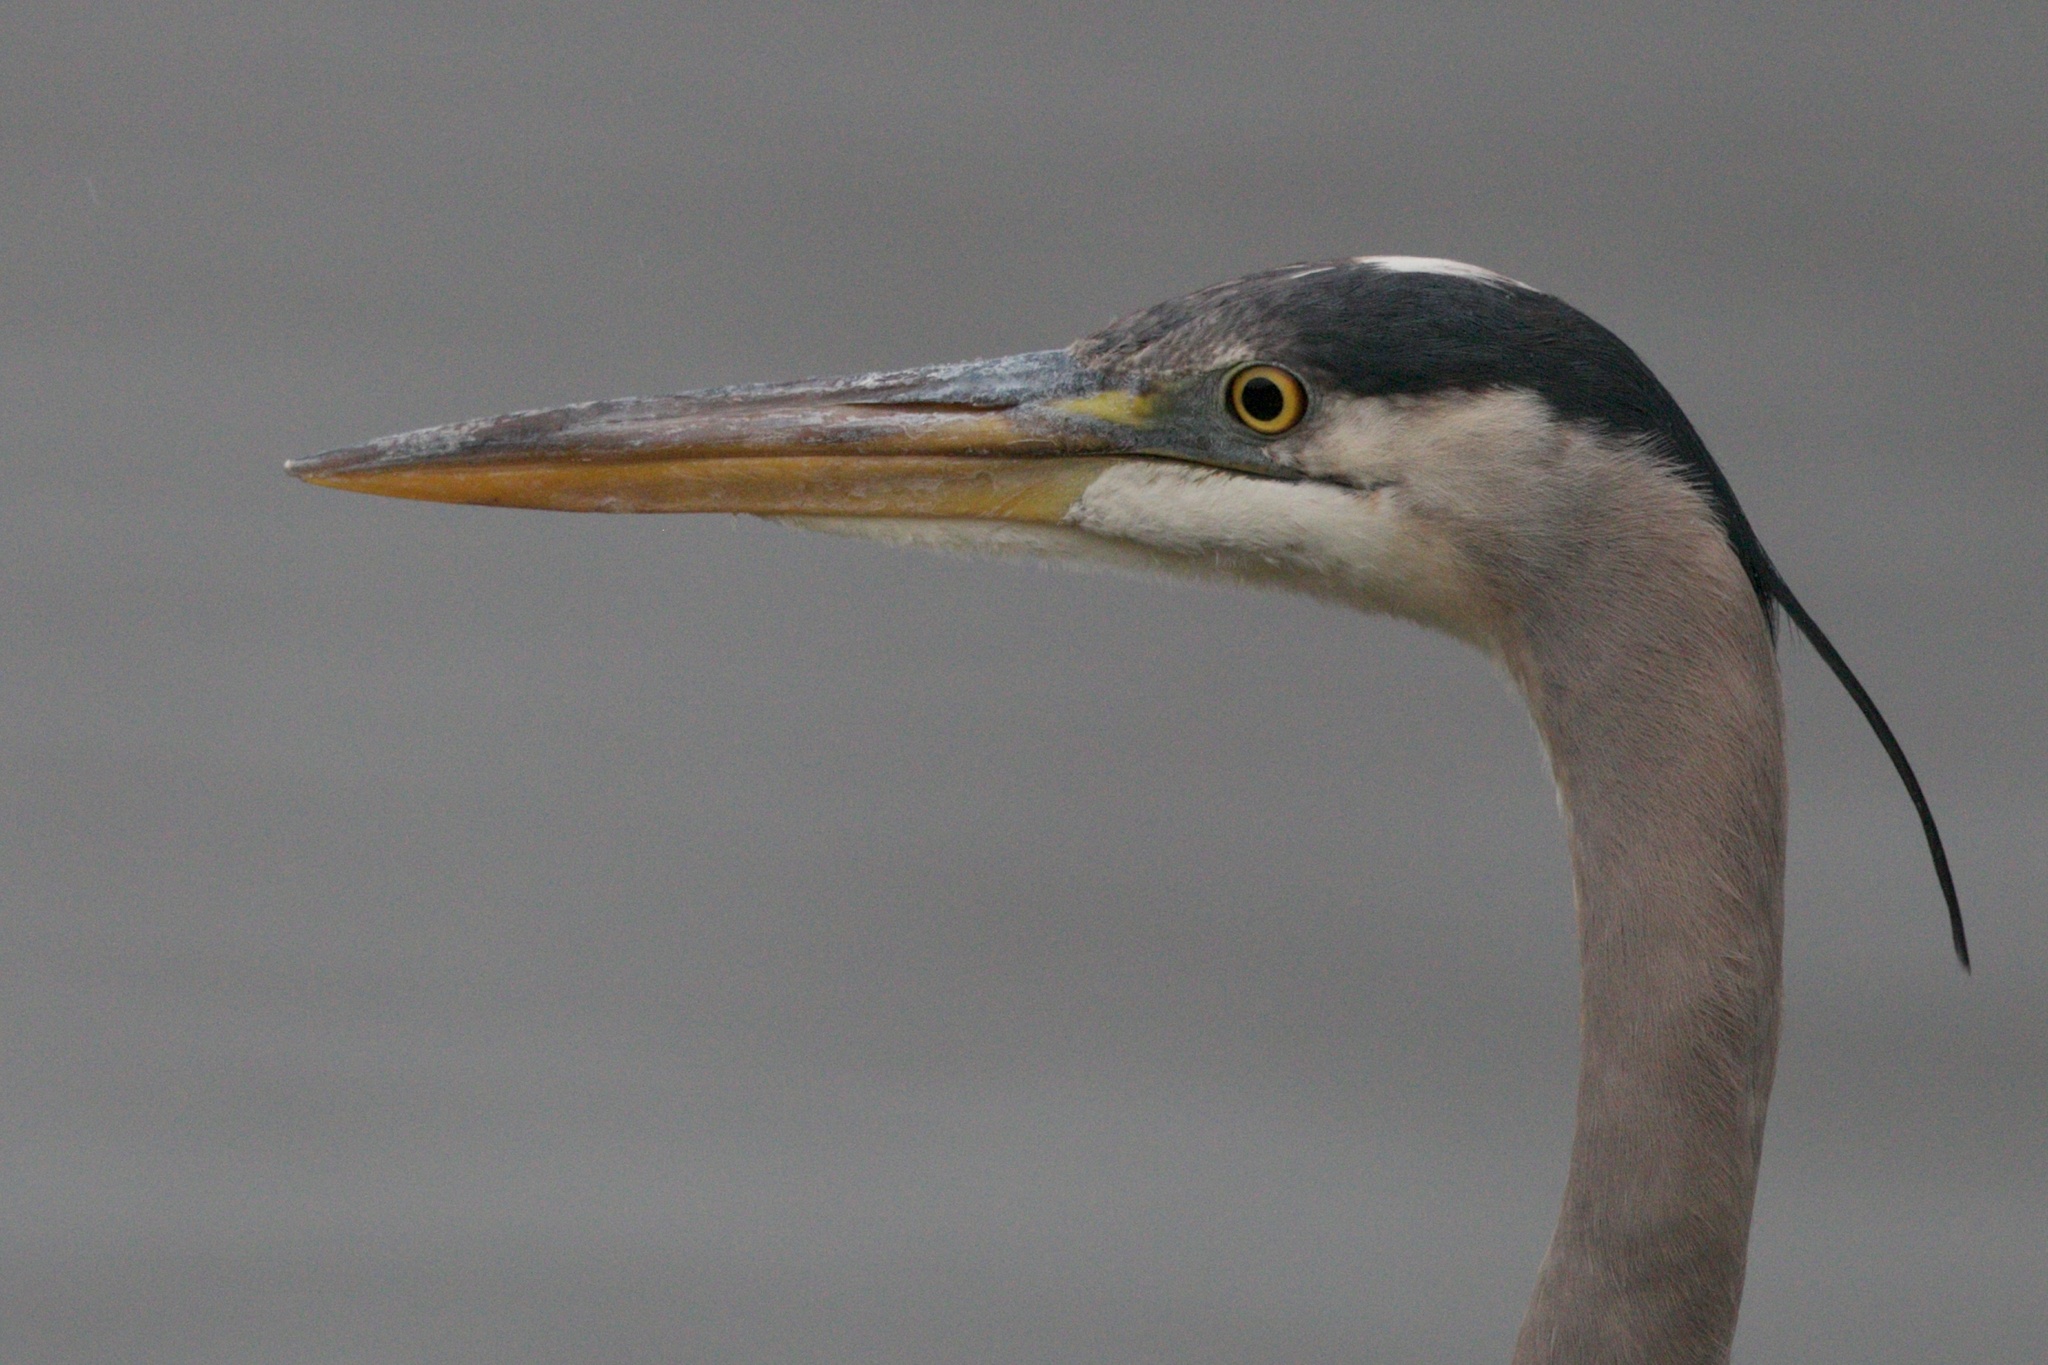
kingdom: Animalia
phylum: Chordata
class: Aves
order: Pelecaniformes
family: Ardeidae
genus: Ardea
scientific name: Ardea herodias
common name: Great blue heron
